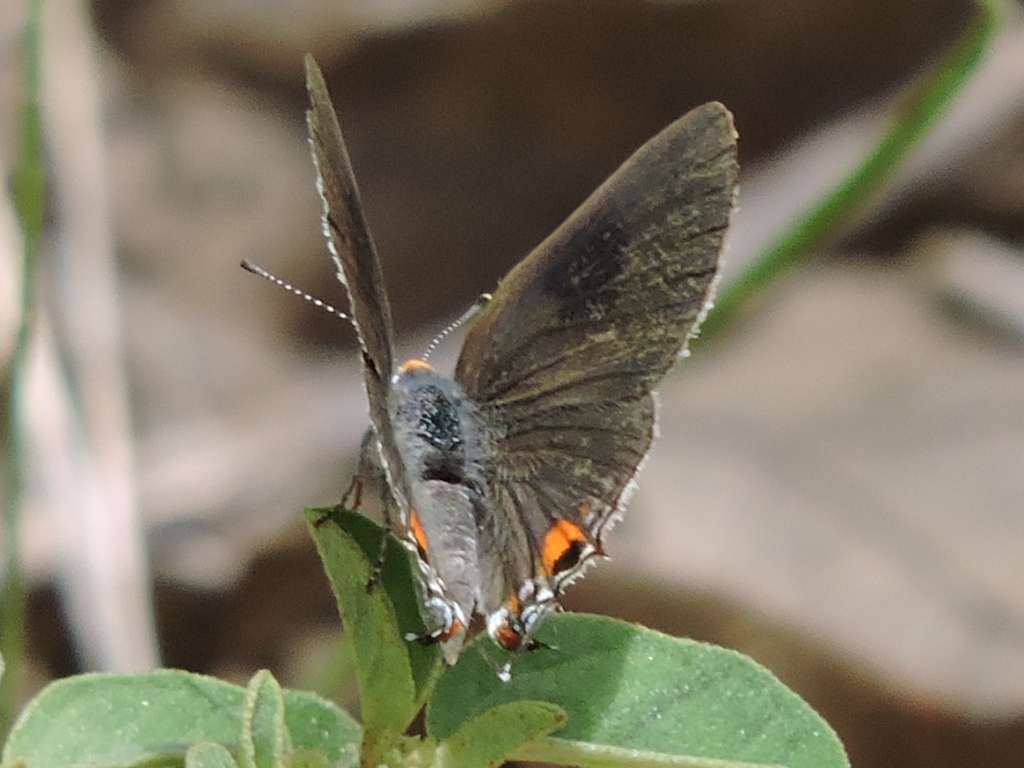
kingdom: Animalia
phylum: Arthropoda
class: Insecta
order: Lepidoptera
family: Lycaenidae
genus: Strymon
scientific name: Strymon melinus
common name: Gray hairstreak
